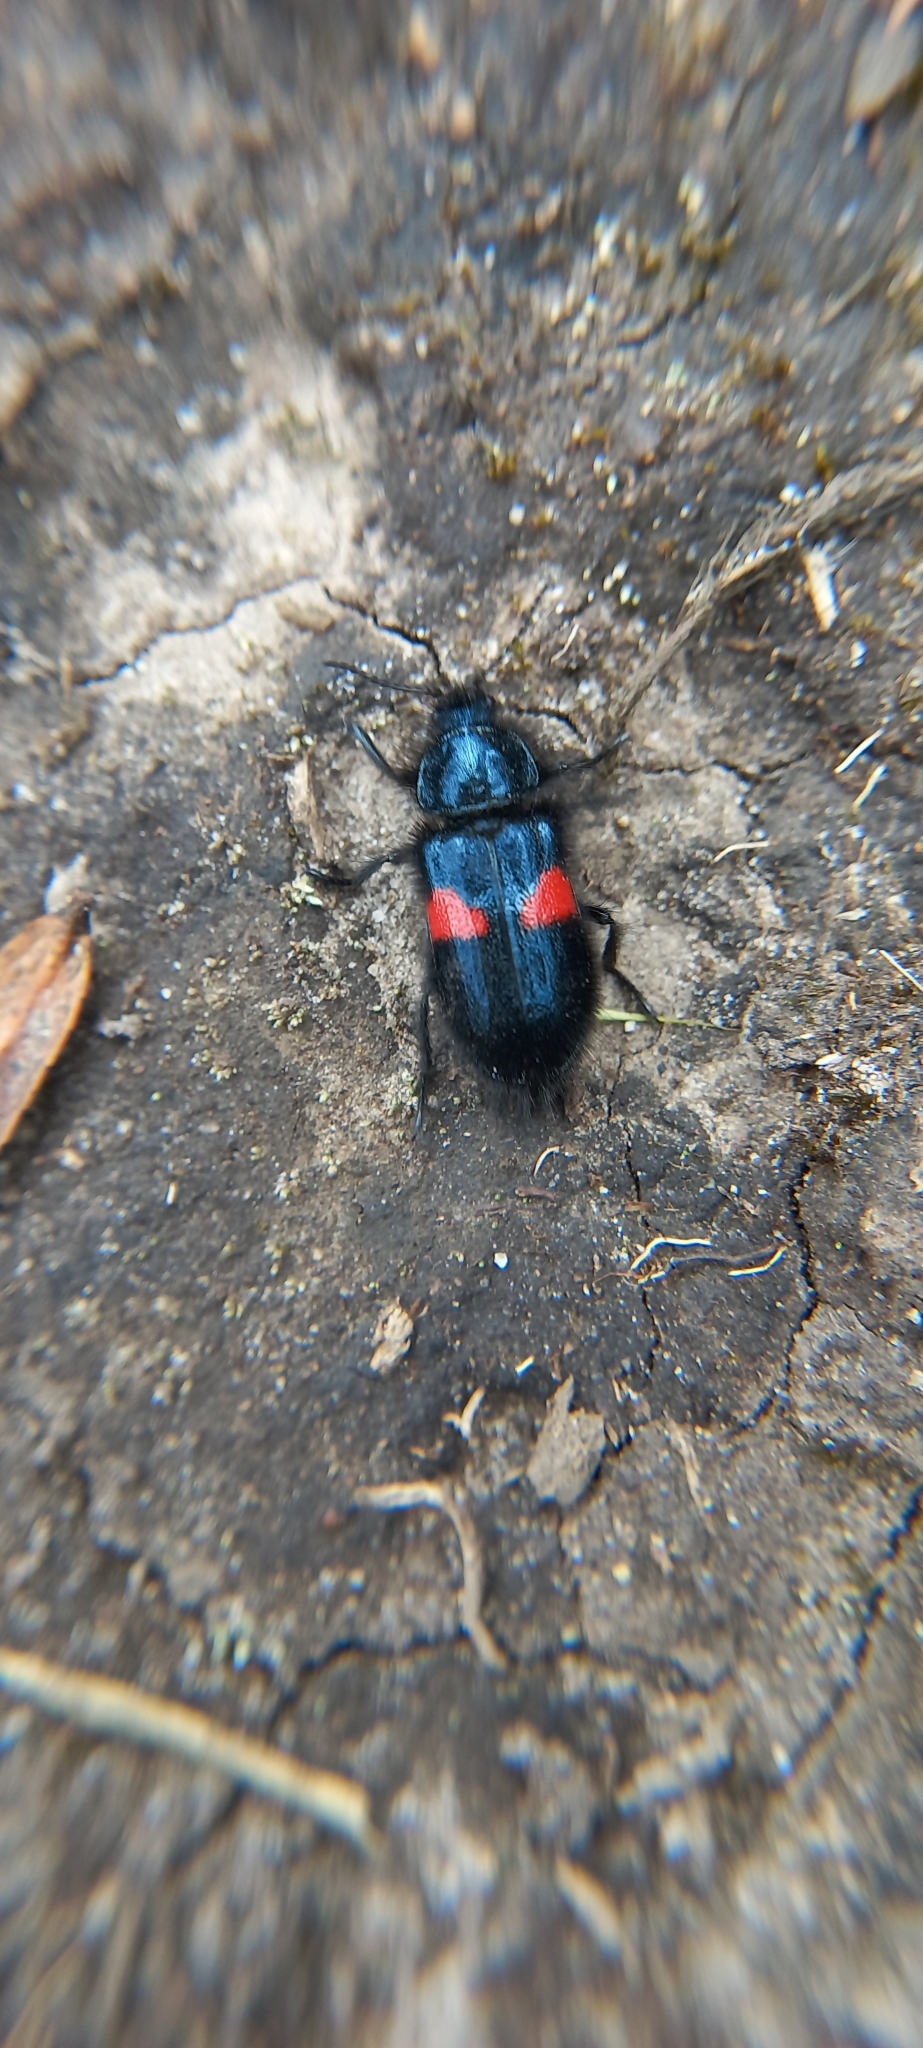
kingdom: Animalia
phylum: Arthropoda
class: Insecta
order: Coleoptera
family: Melyridae
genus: Astylus
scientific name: Astylus
